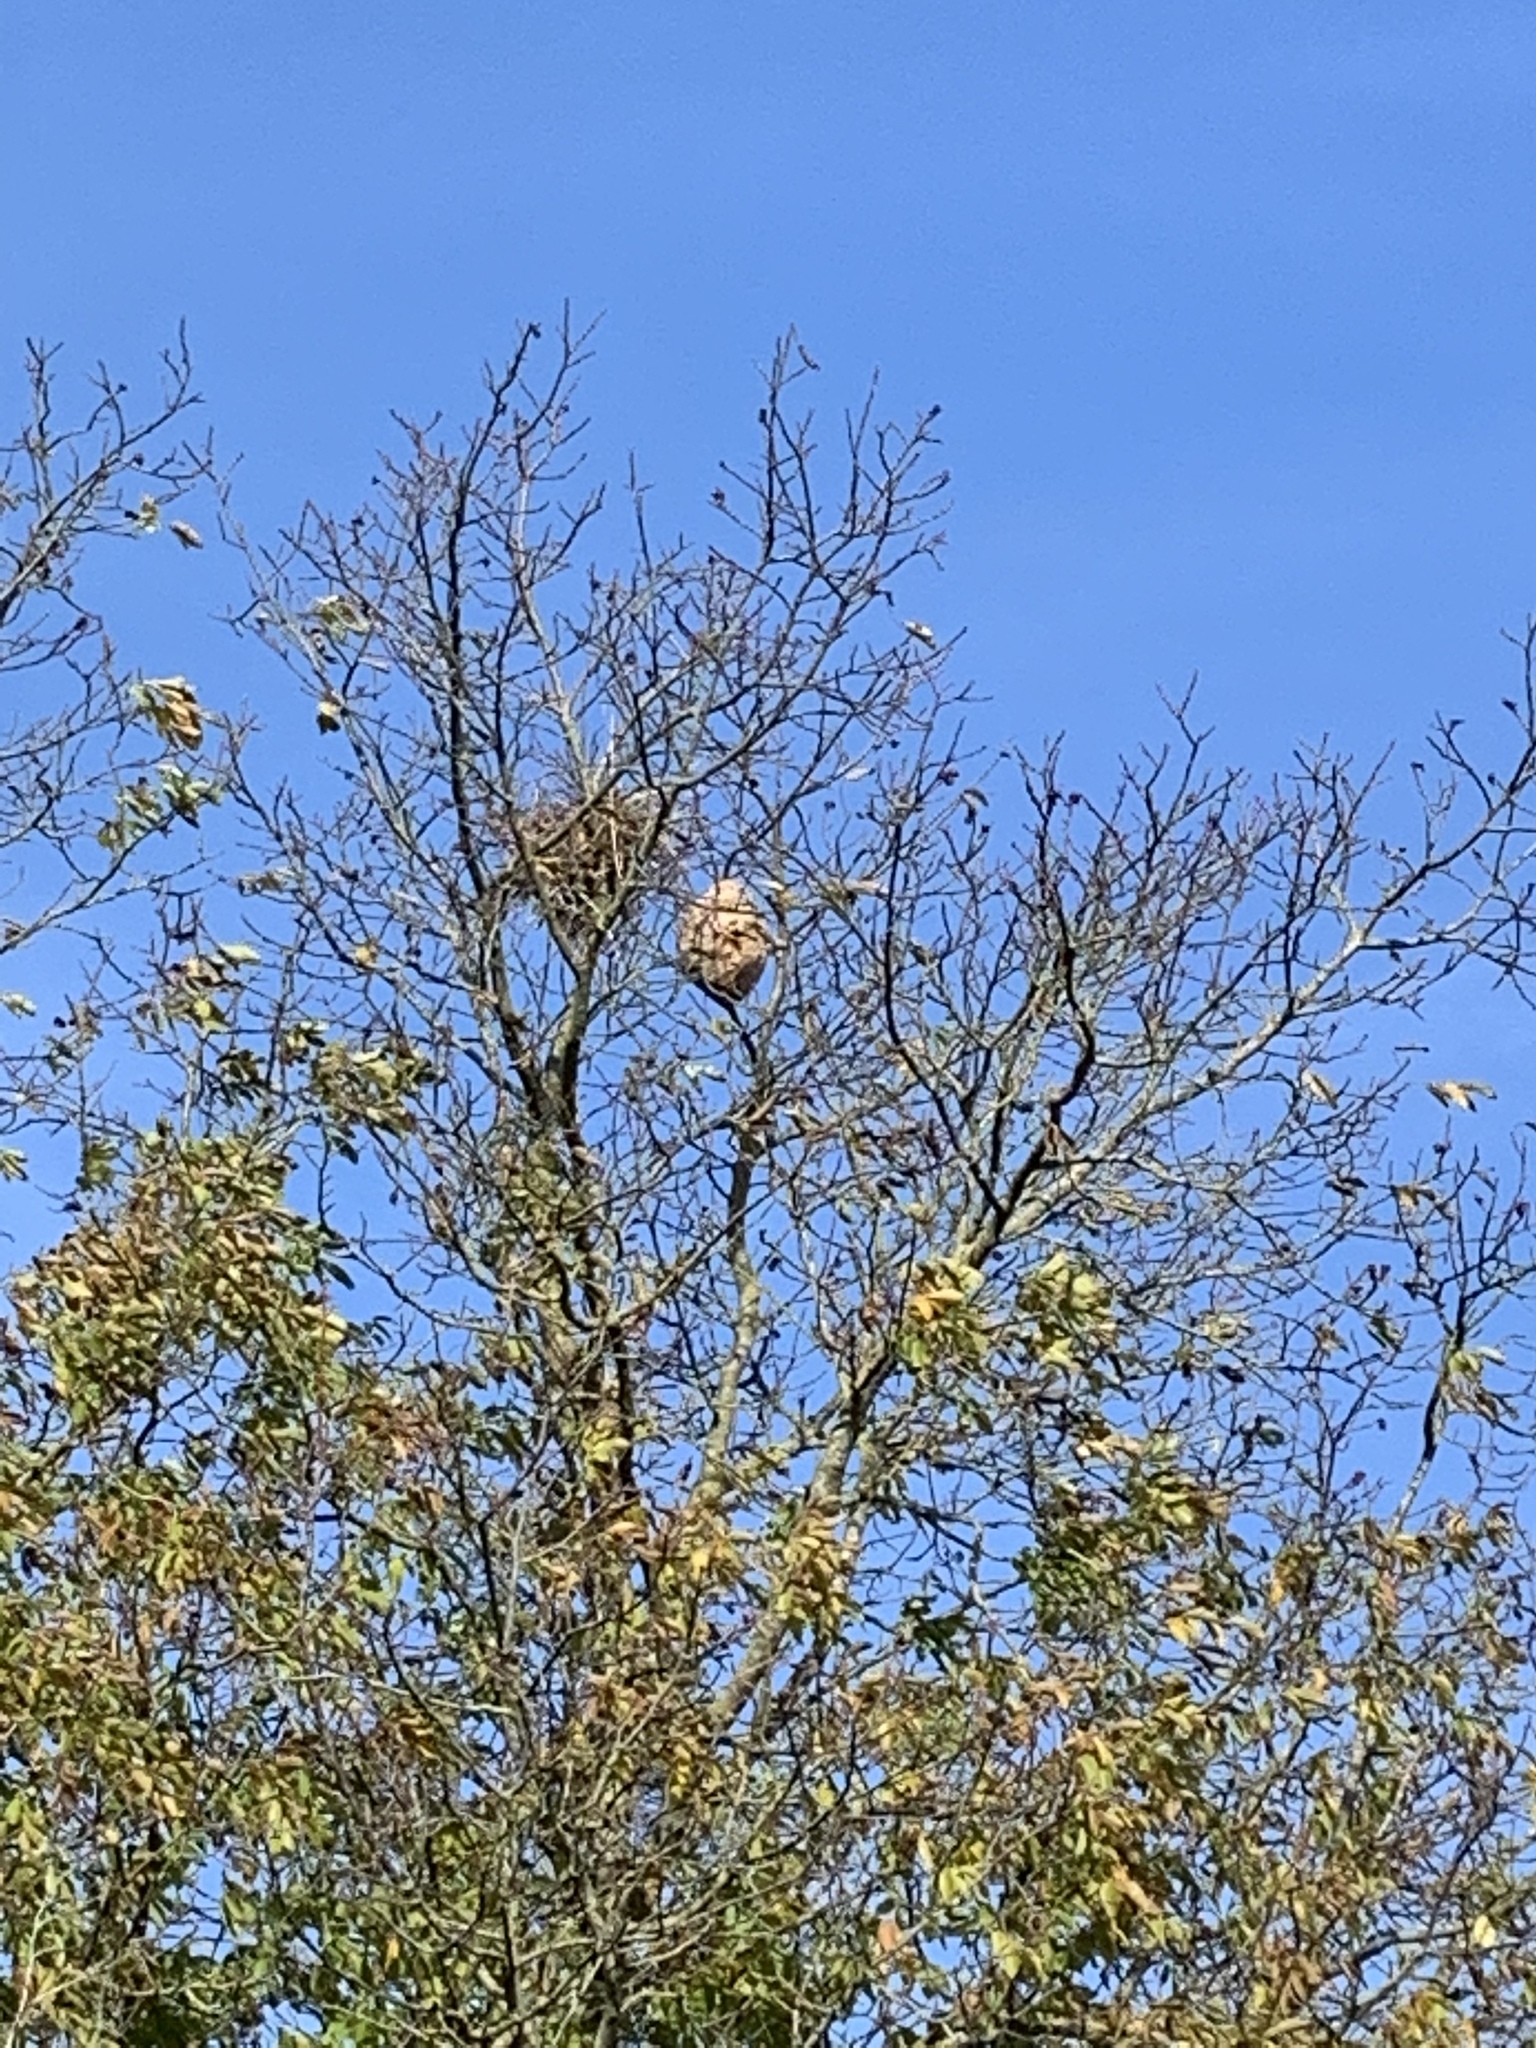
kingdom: Animalia
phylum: Arthropoda
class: Insecta
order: Hymenoptera
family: Vespidae
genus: Vespa
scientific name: Vespa velutina
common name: Asian hornet
